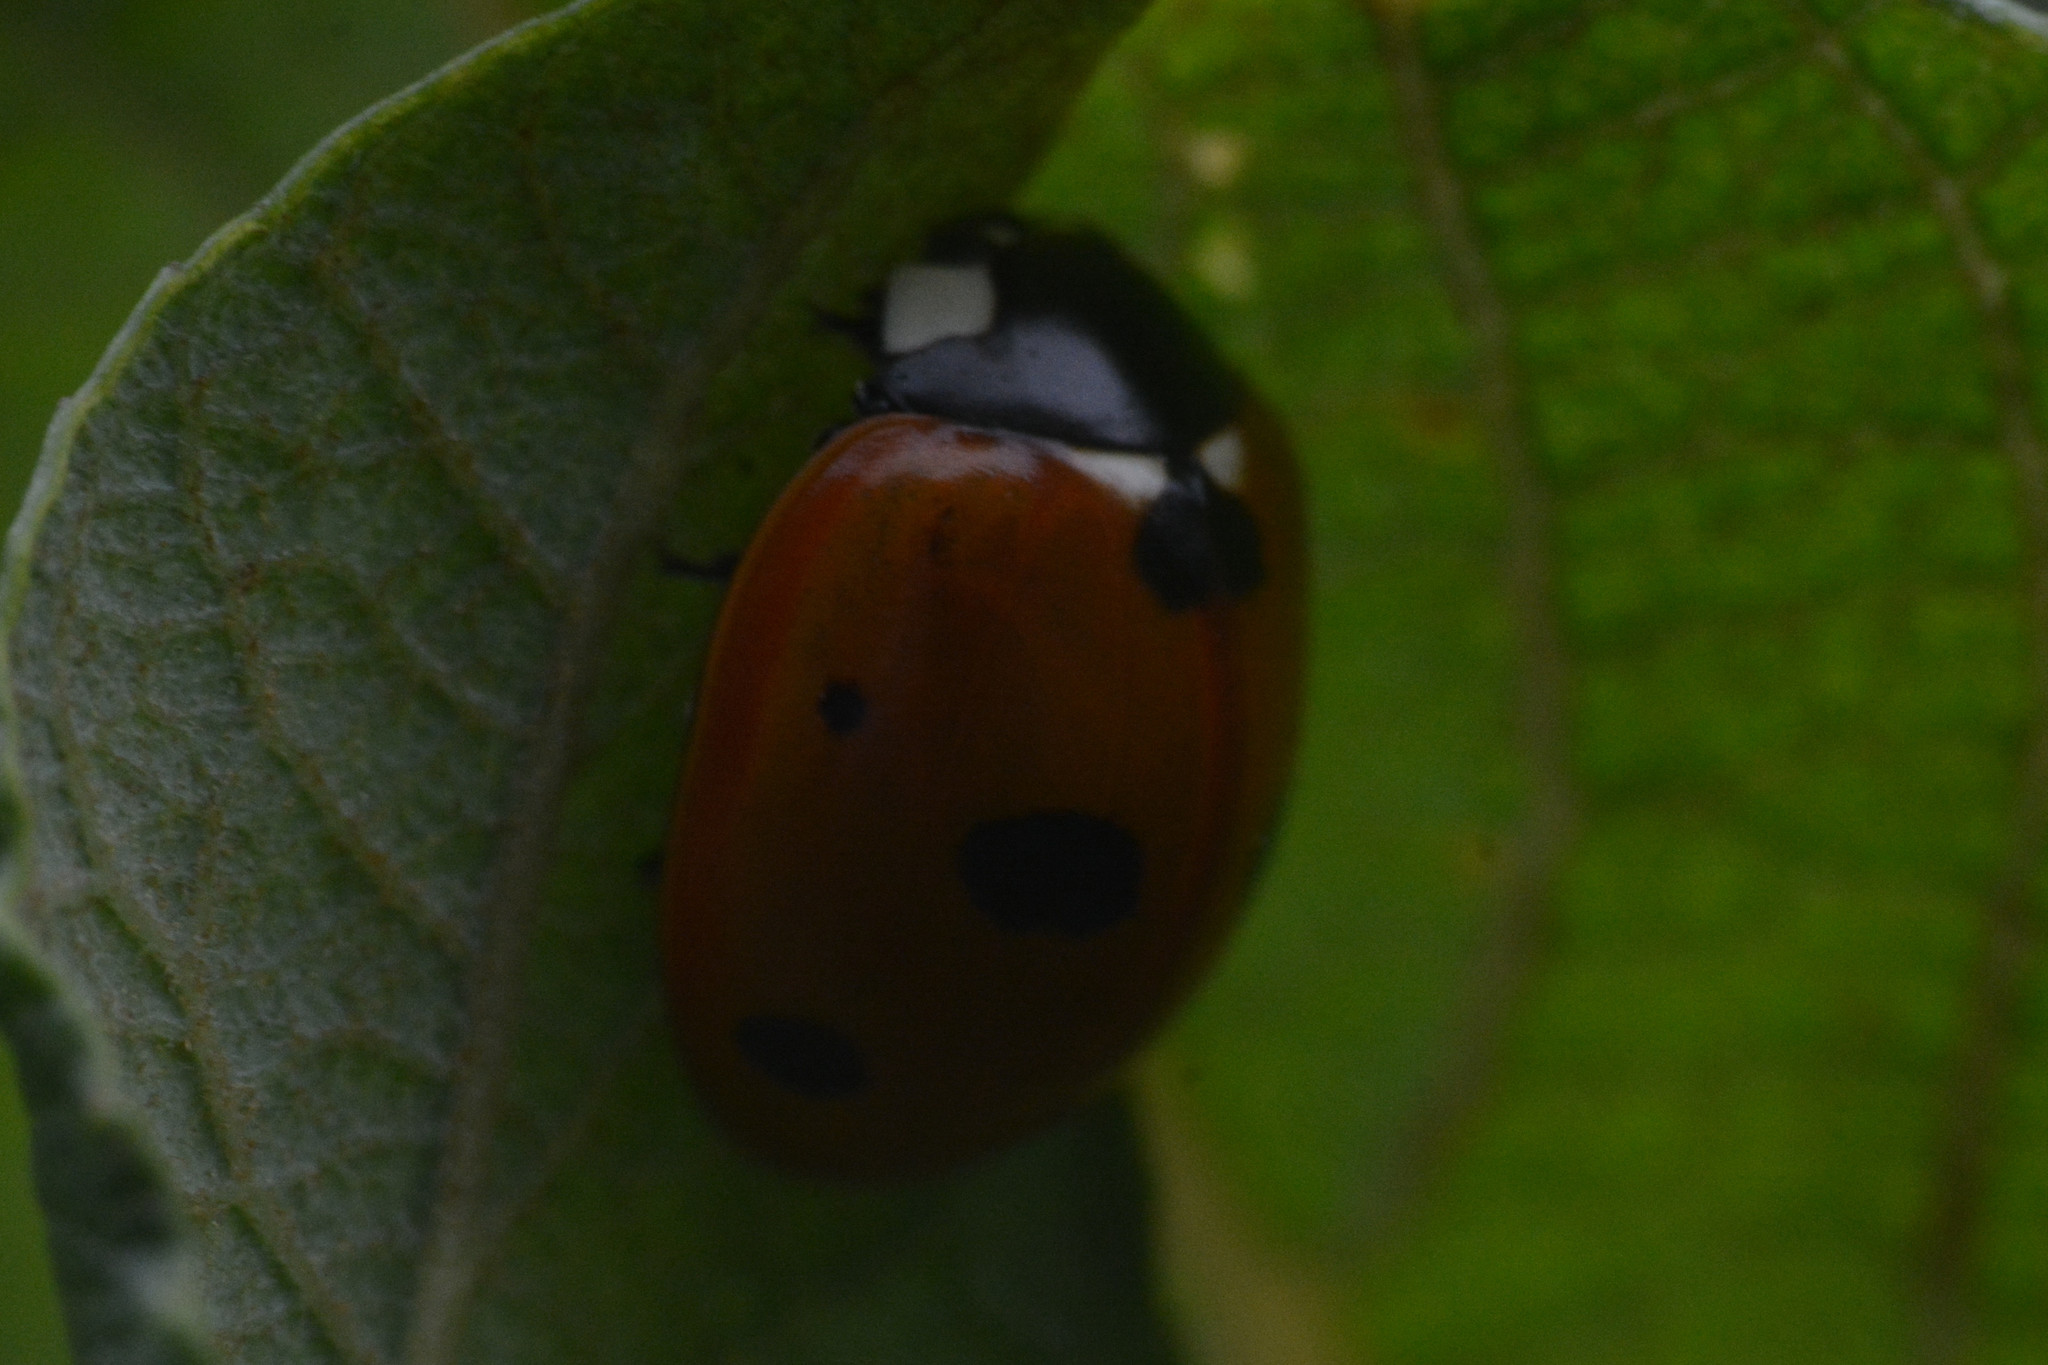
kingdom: Animalia
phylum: Arthropoda
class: Insecta
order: Coleoptera
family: Coccinellidae
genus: Coccinella
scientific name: Coccinella septempunctata
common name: Sevenspotted lady beetle
